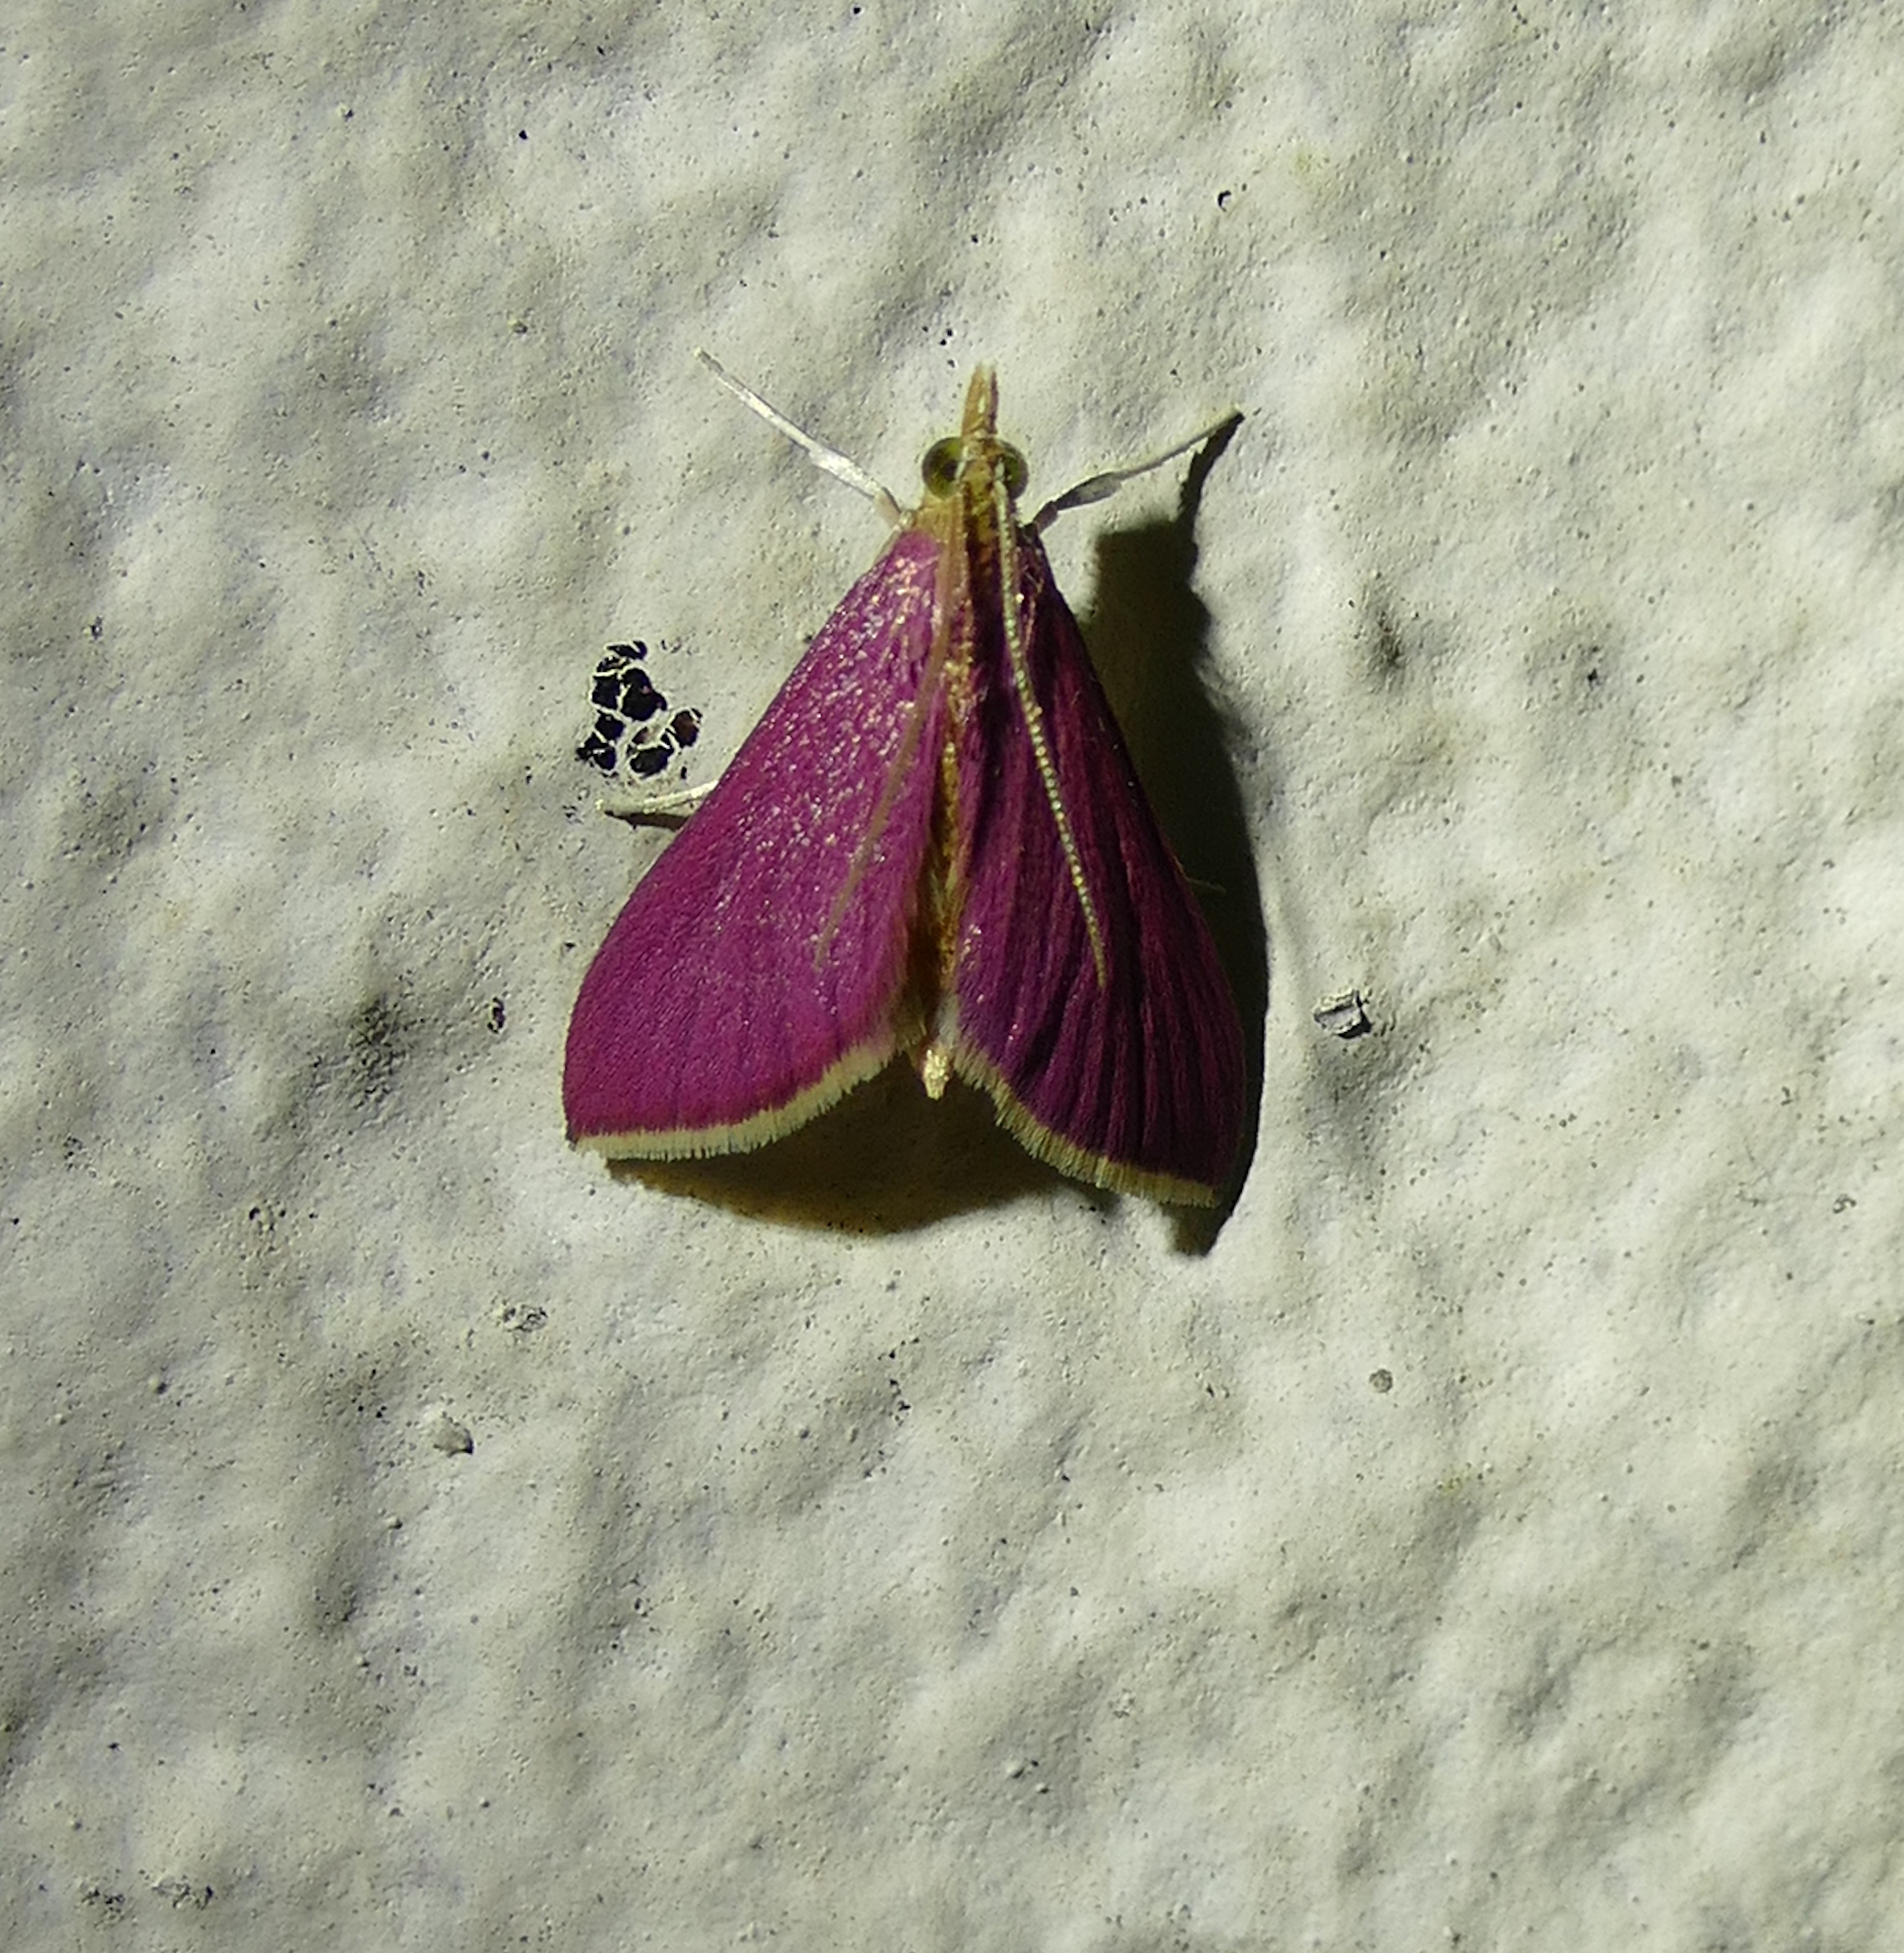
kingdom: Animalia
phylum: Arthropoda
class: Insecta
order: Lepidoptera
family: Crambidae
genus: Pyrausta
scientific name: Pyrausta inornatalis
